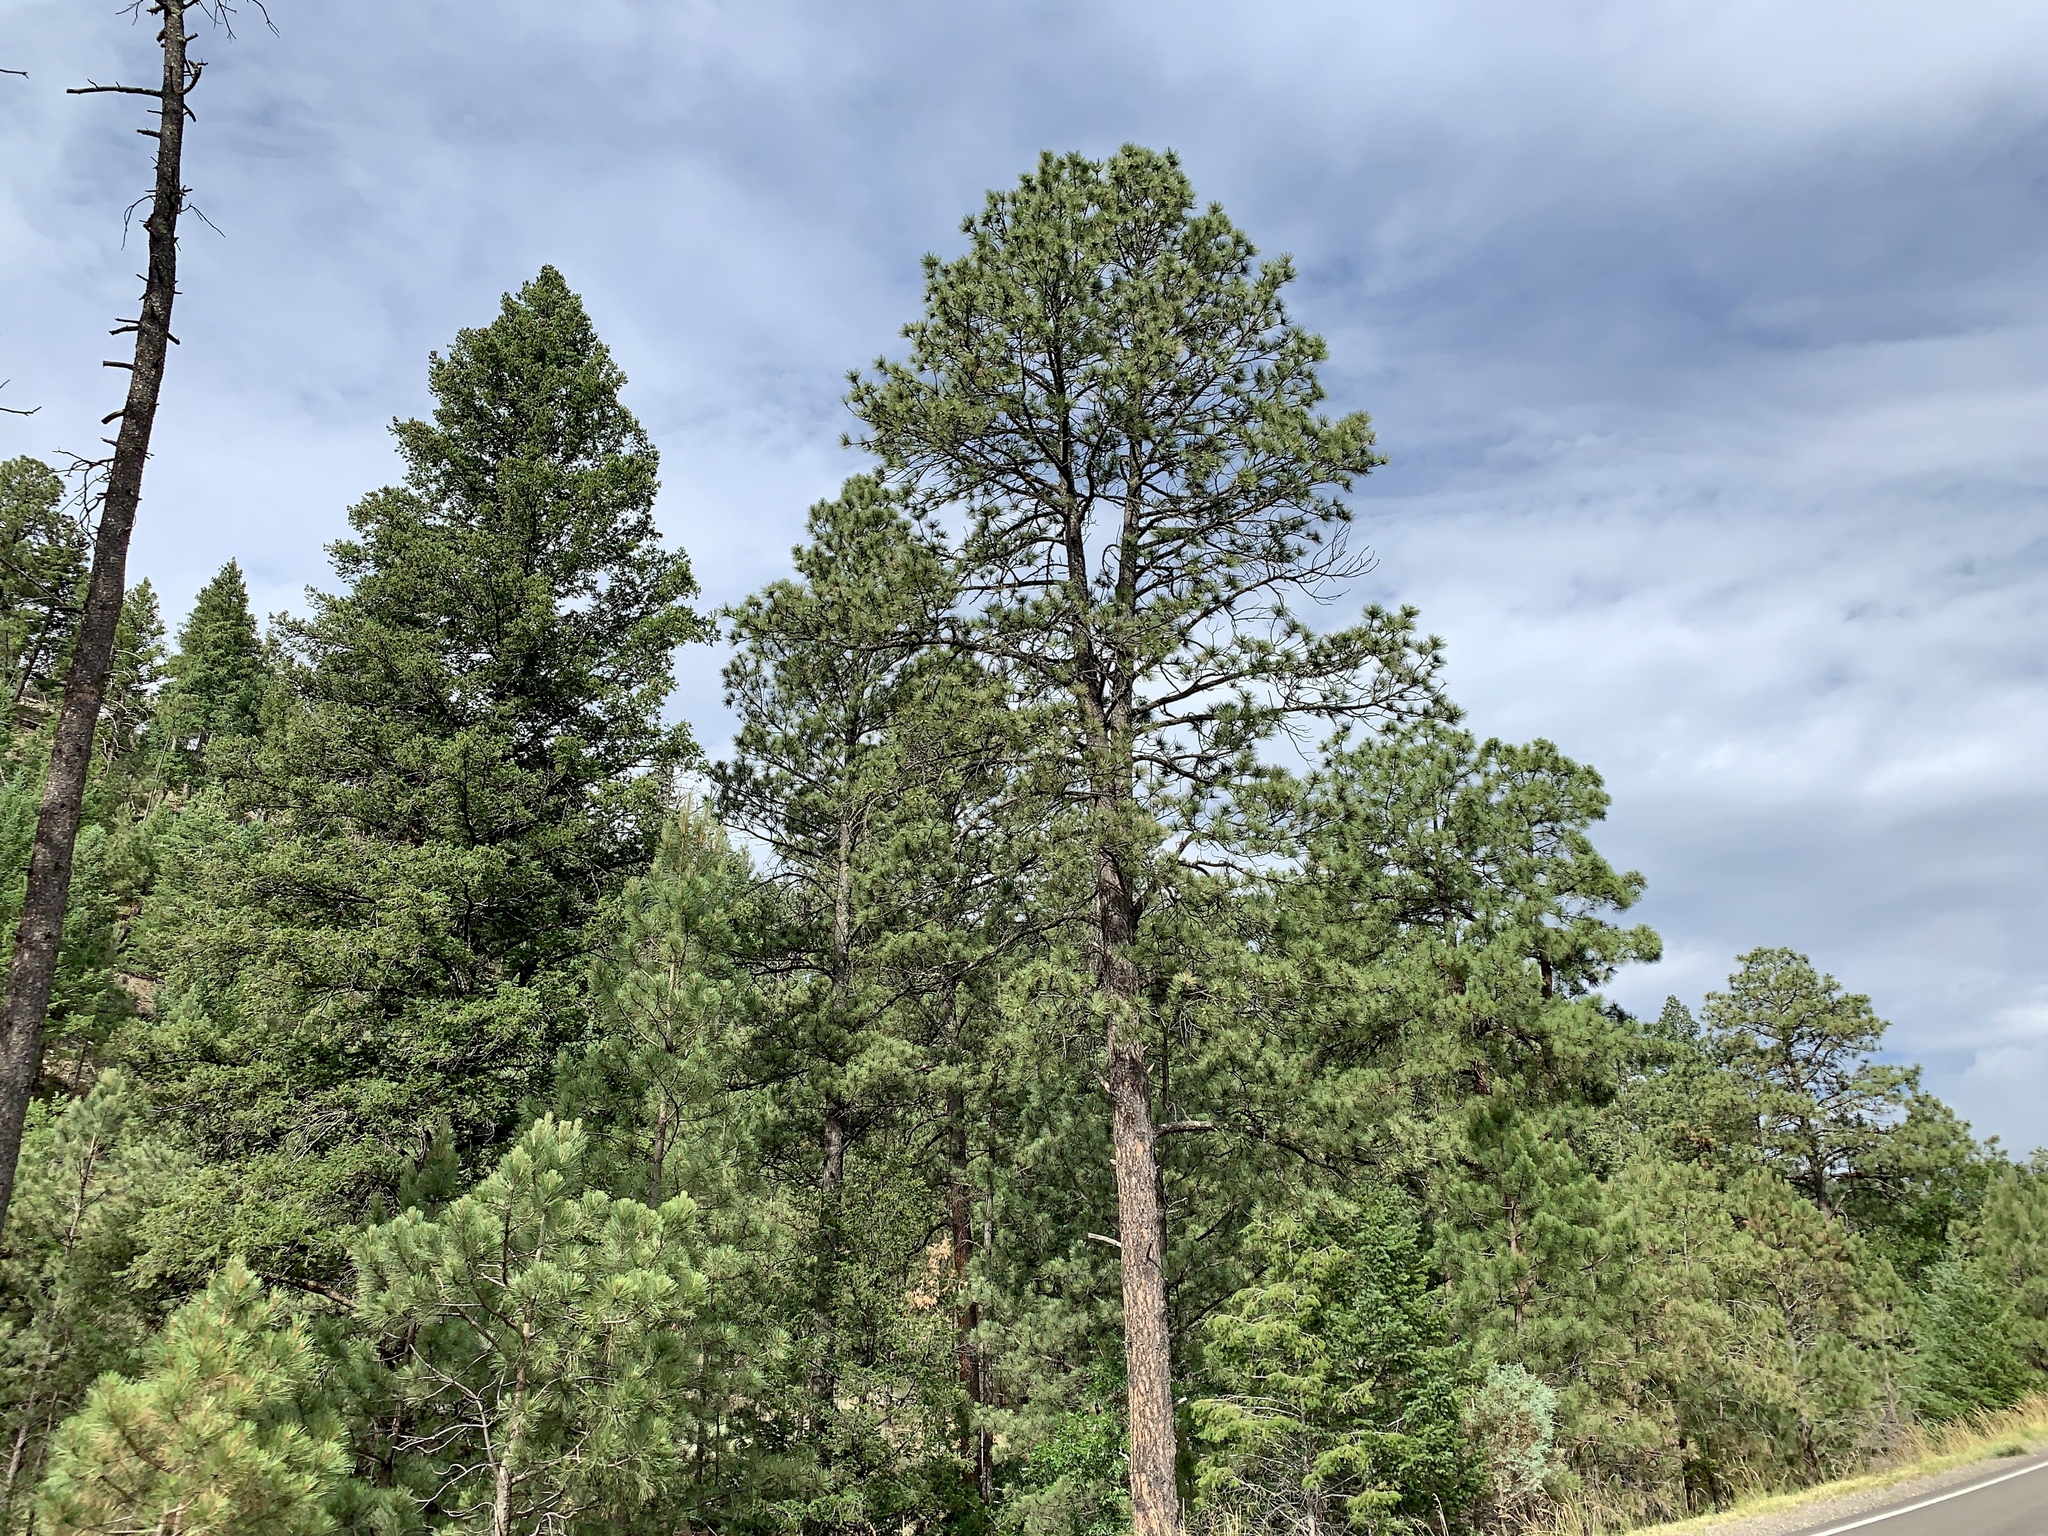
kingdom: Plantae
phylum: Tracheophyta
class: Pinopsida
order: Pinales
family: Pinaceae
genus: Pinus
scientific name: Pinus ponderosa
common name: Western yellow-pine
